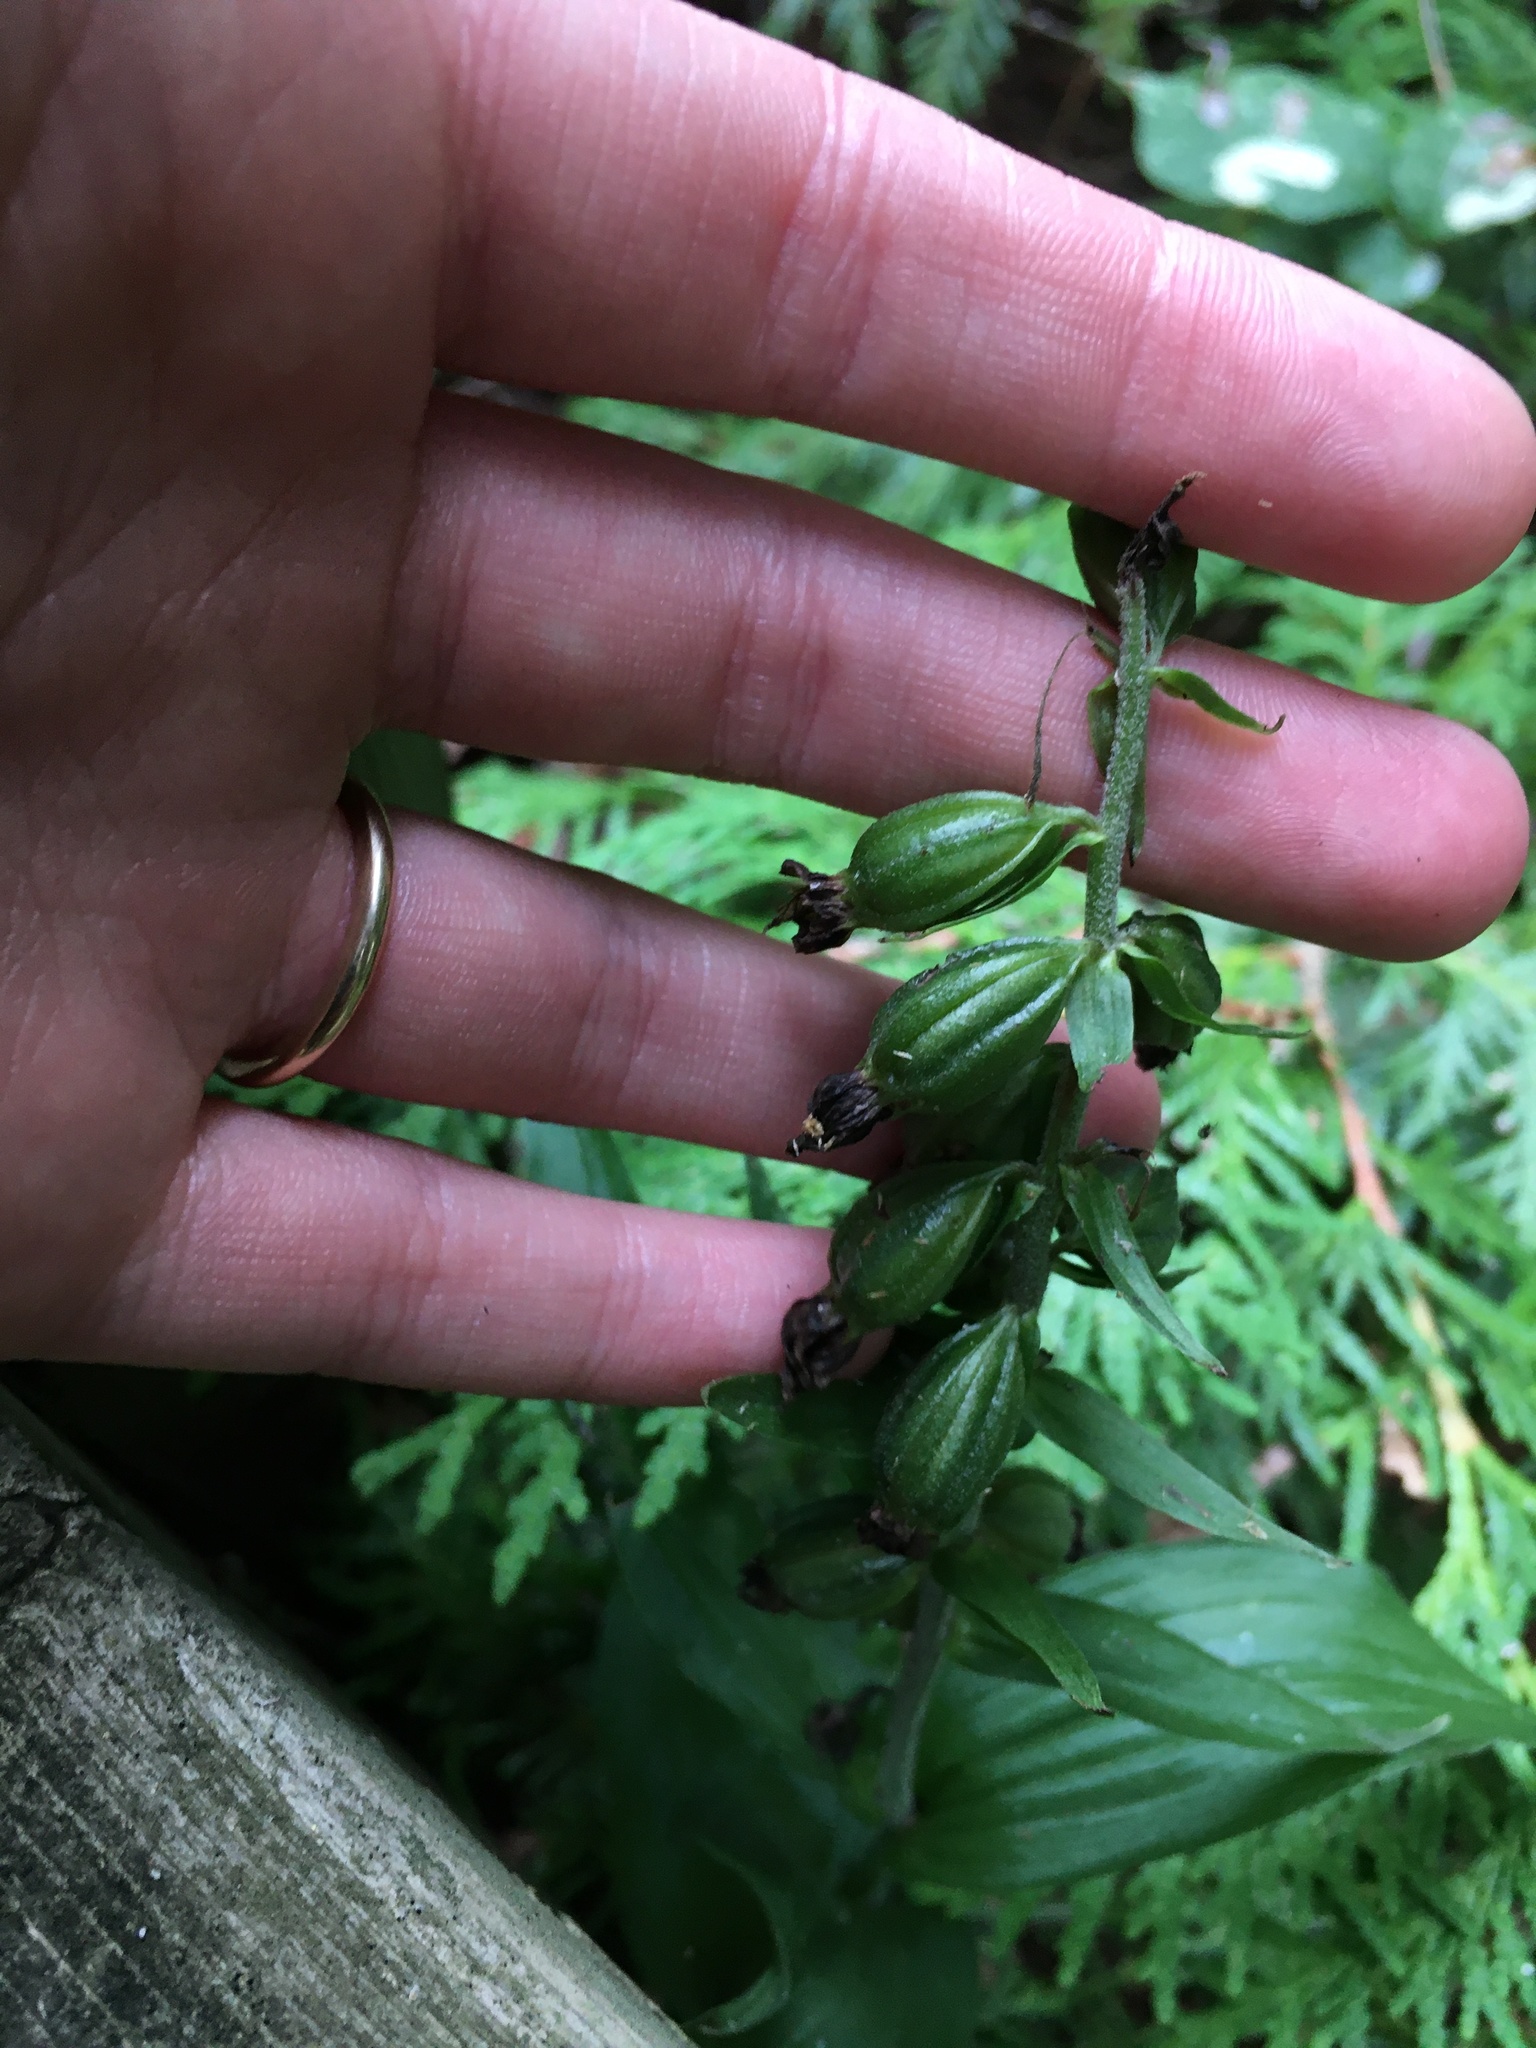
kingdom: Plantae
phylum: Tracheophyta
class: Liliopsida
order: Asparagales
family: Orchidaceae
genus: Epipactis
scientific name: Epipactis helleborine
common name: Broad-leaved helleborine
